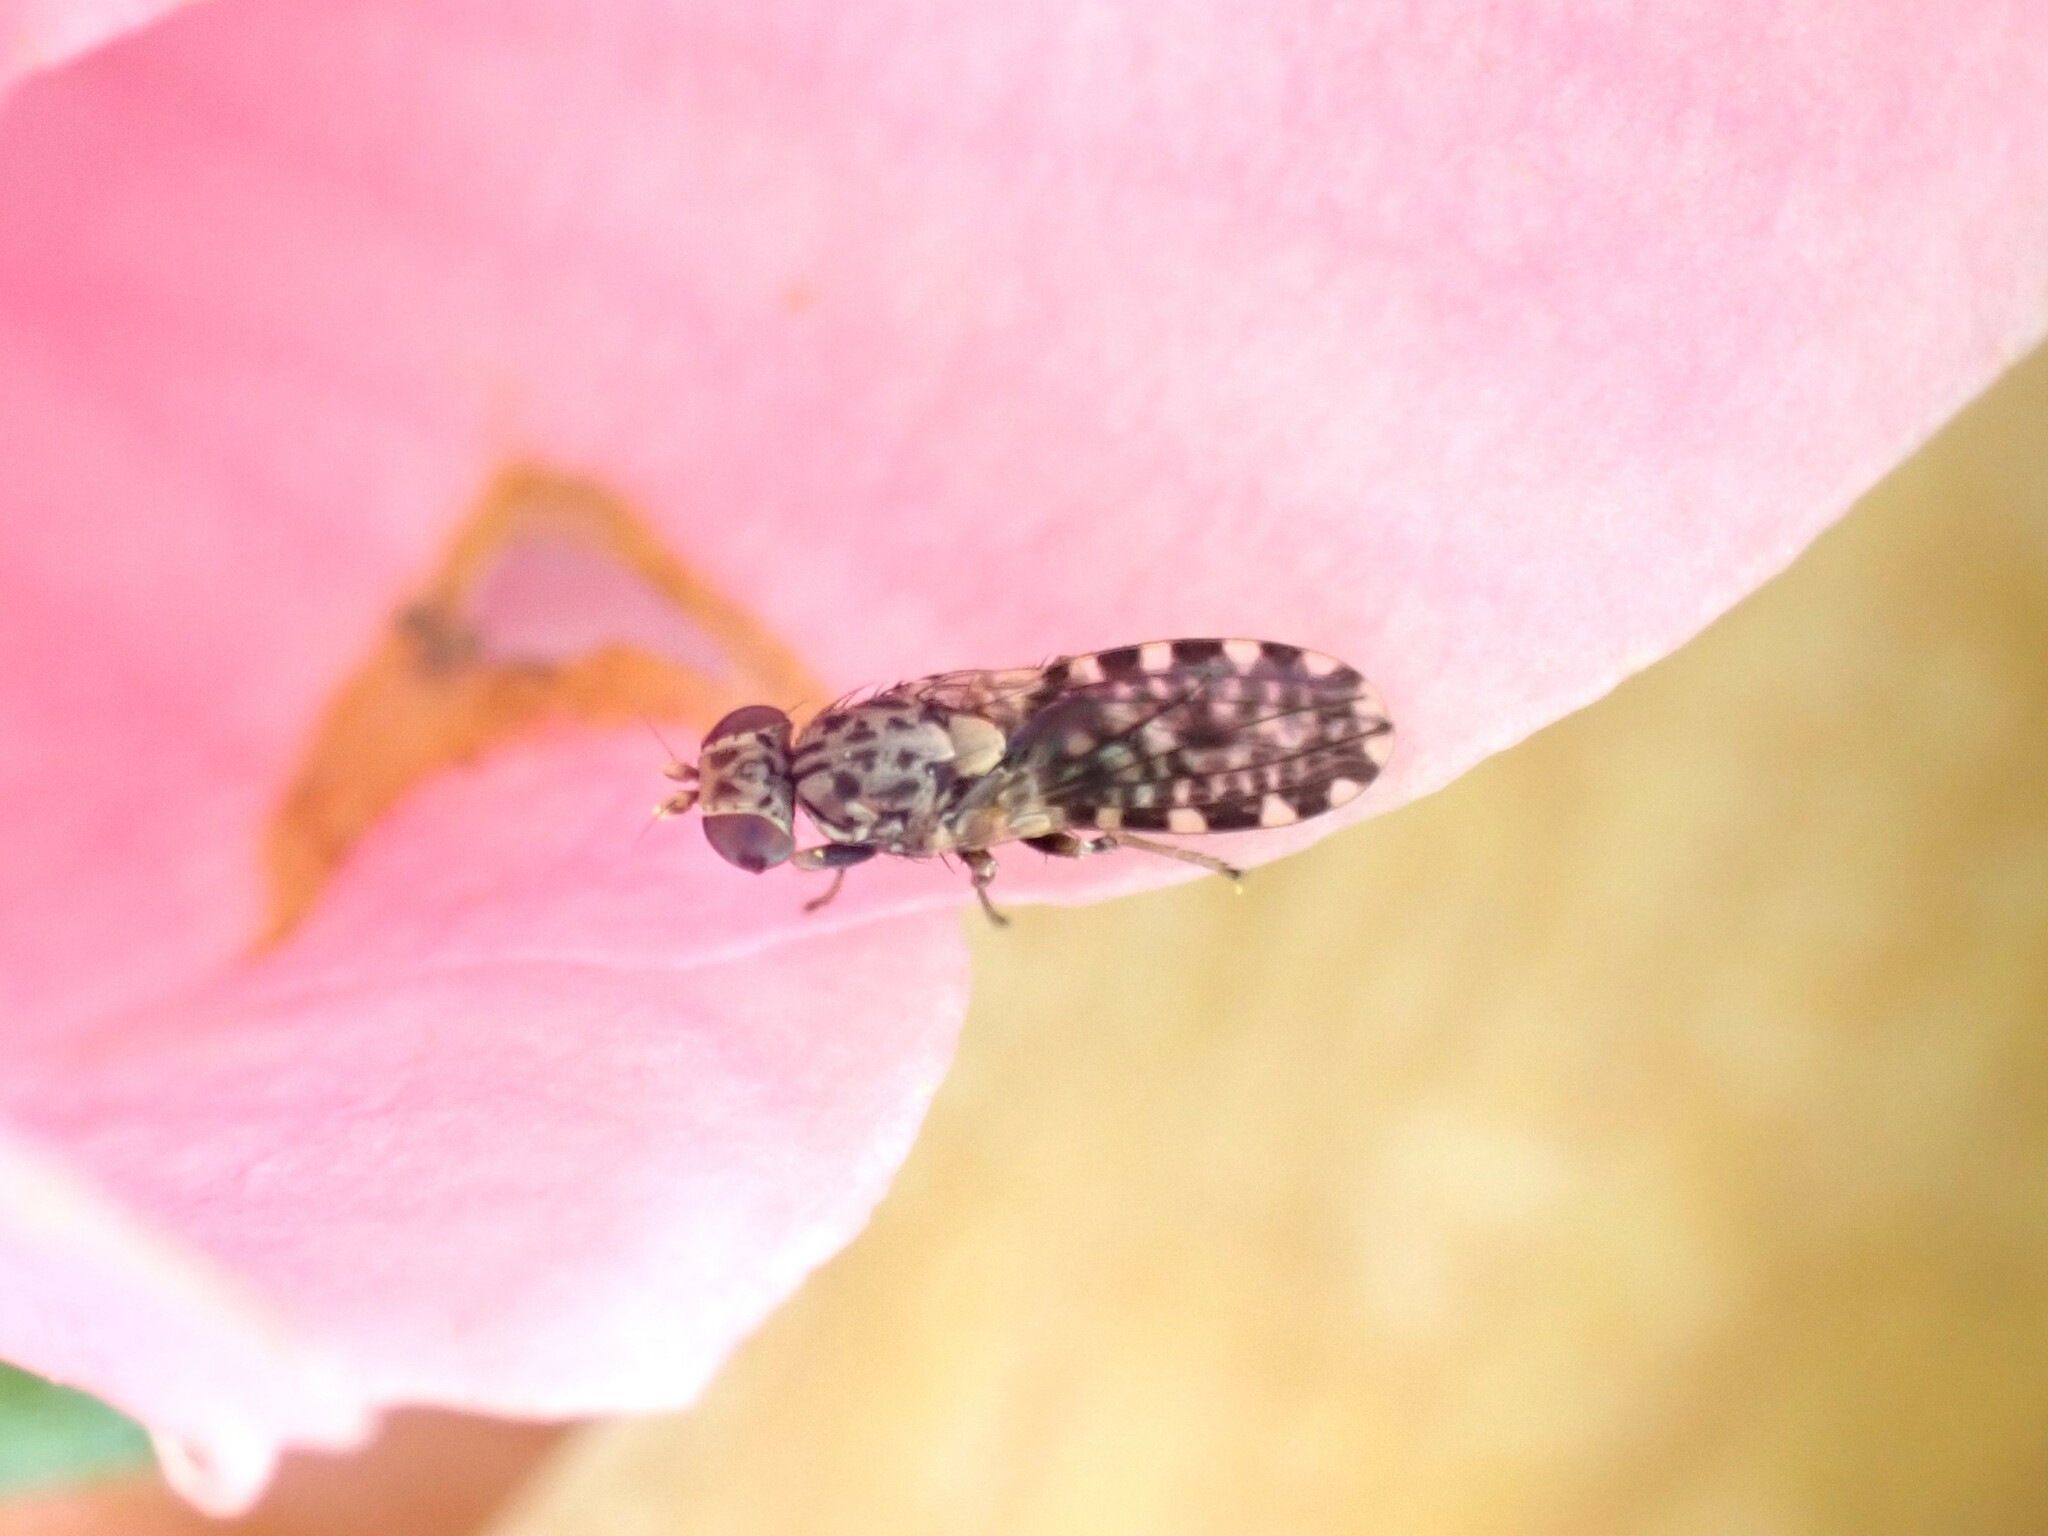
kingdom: Animalia
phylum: Arthropoda
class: Insecta
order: Diptera
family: Heleomyzidae
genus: Xeneura
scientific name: Xeneura picata
